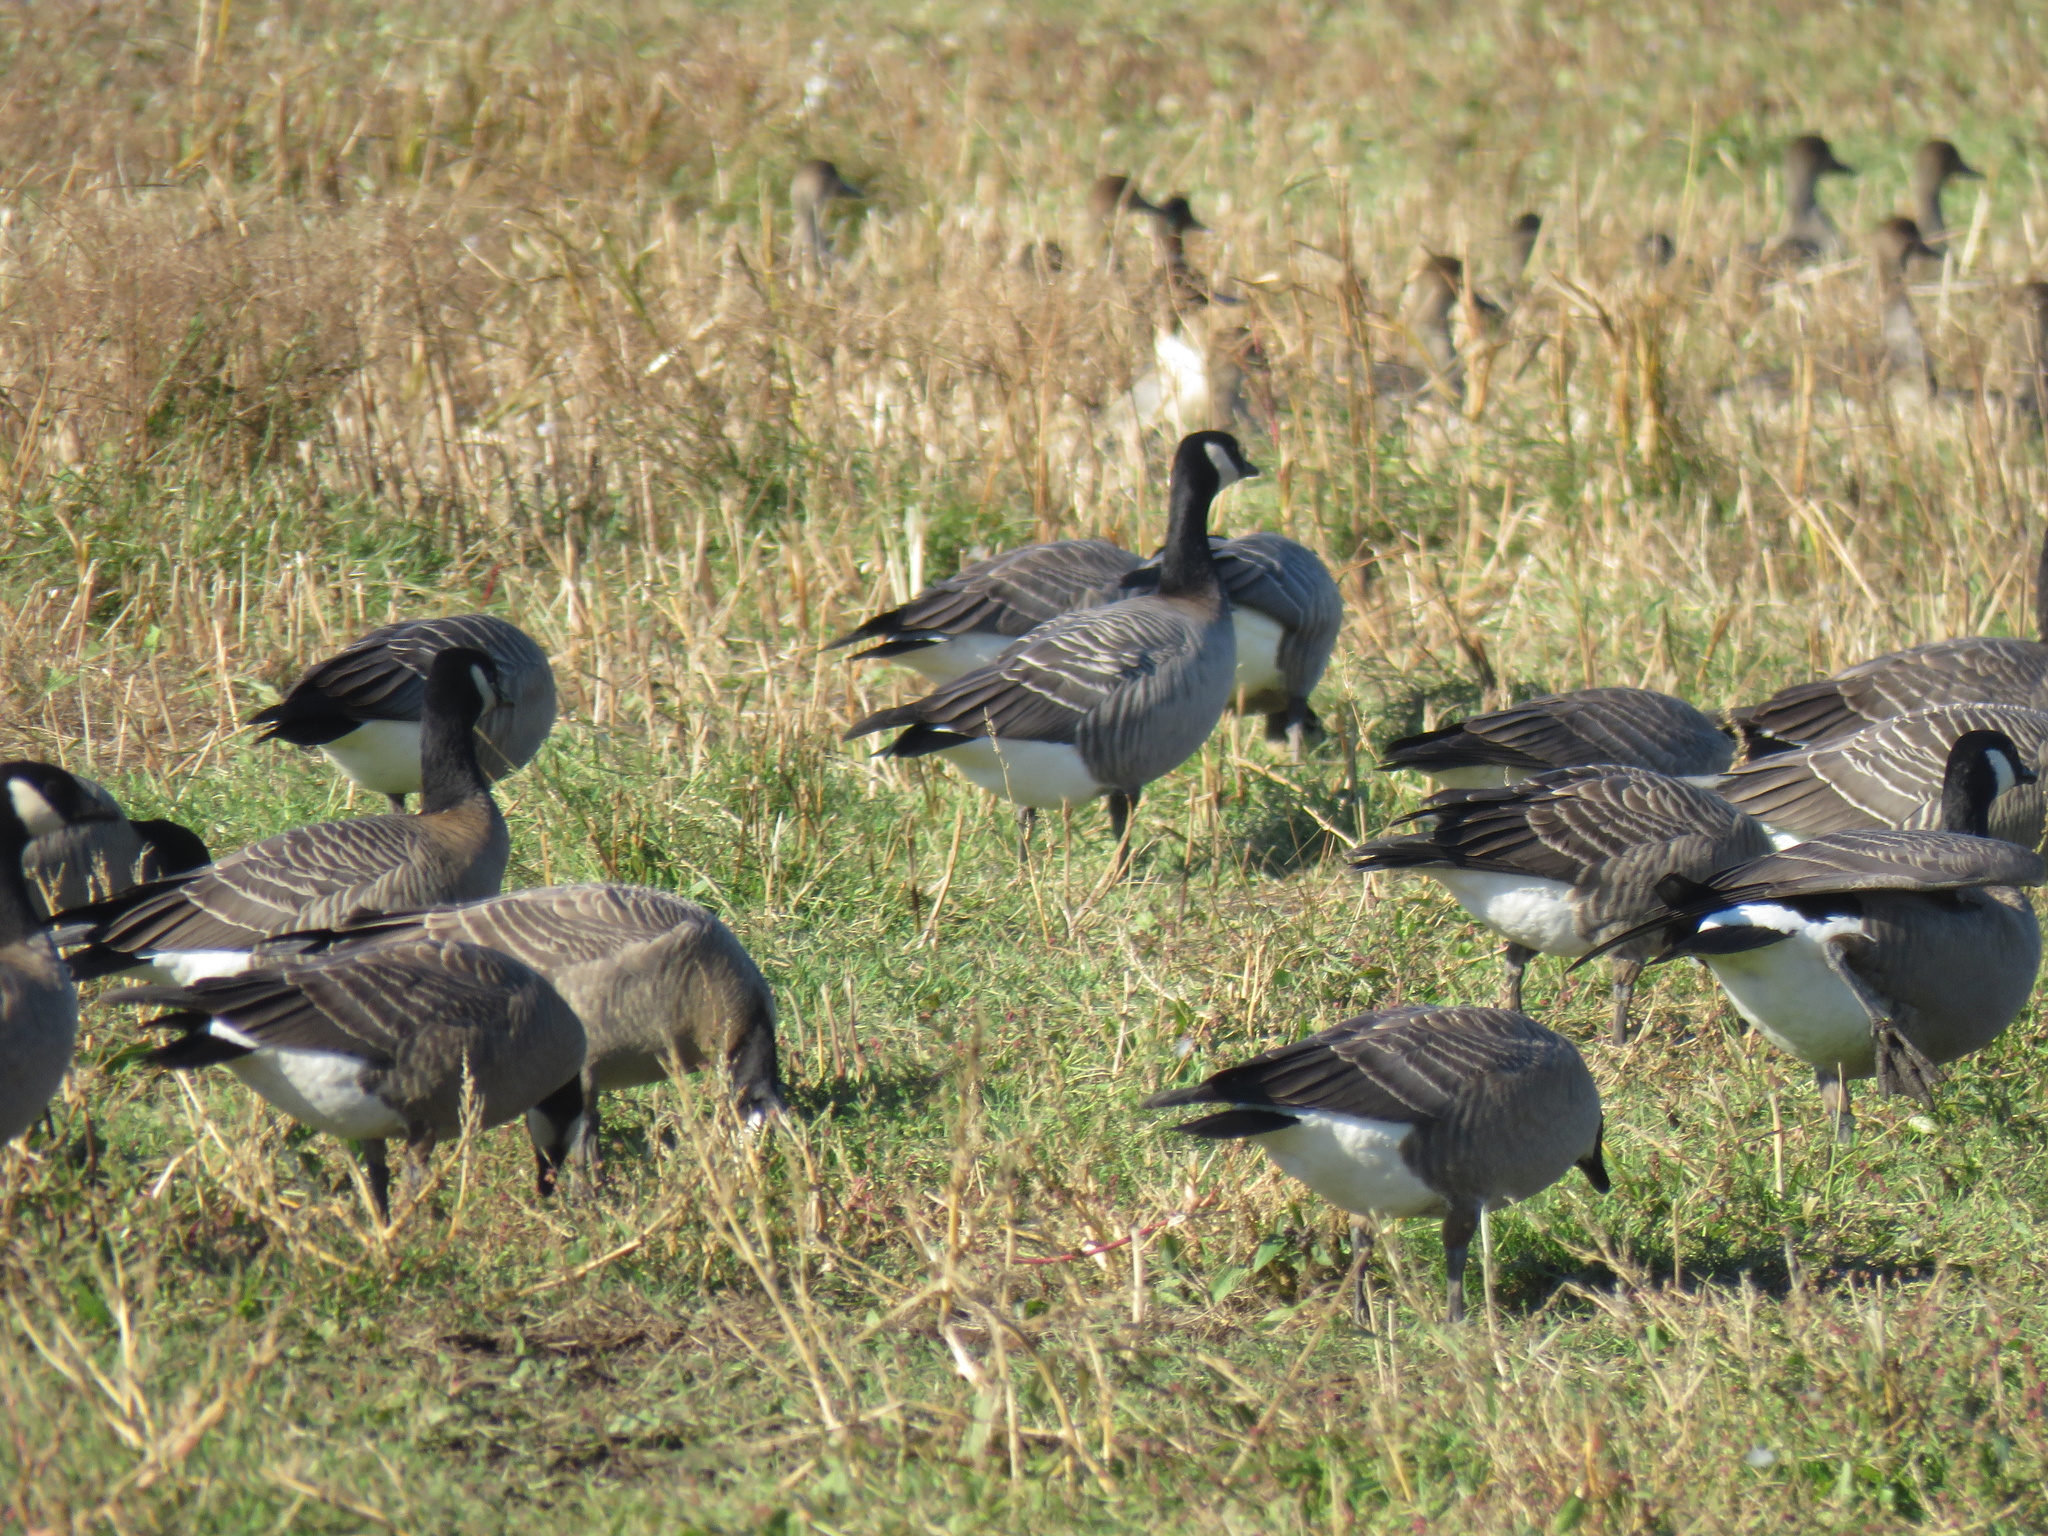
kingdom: Animalia
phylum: Chordata
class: Aves
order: Anseriformes
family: Anatidae
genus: Branta
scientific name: Branta hutchinsii
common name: Cackling goose
